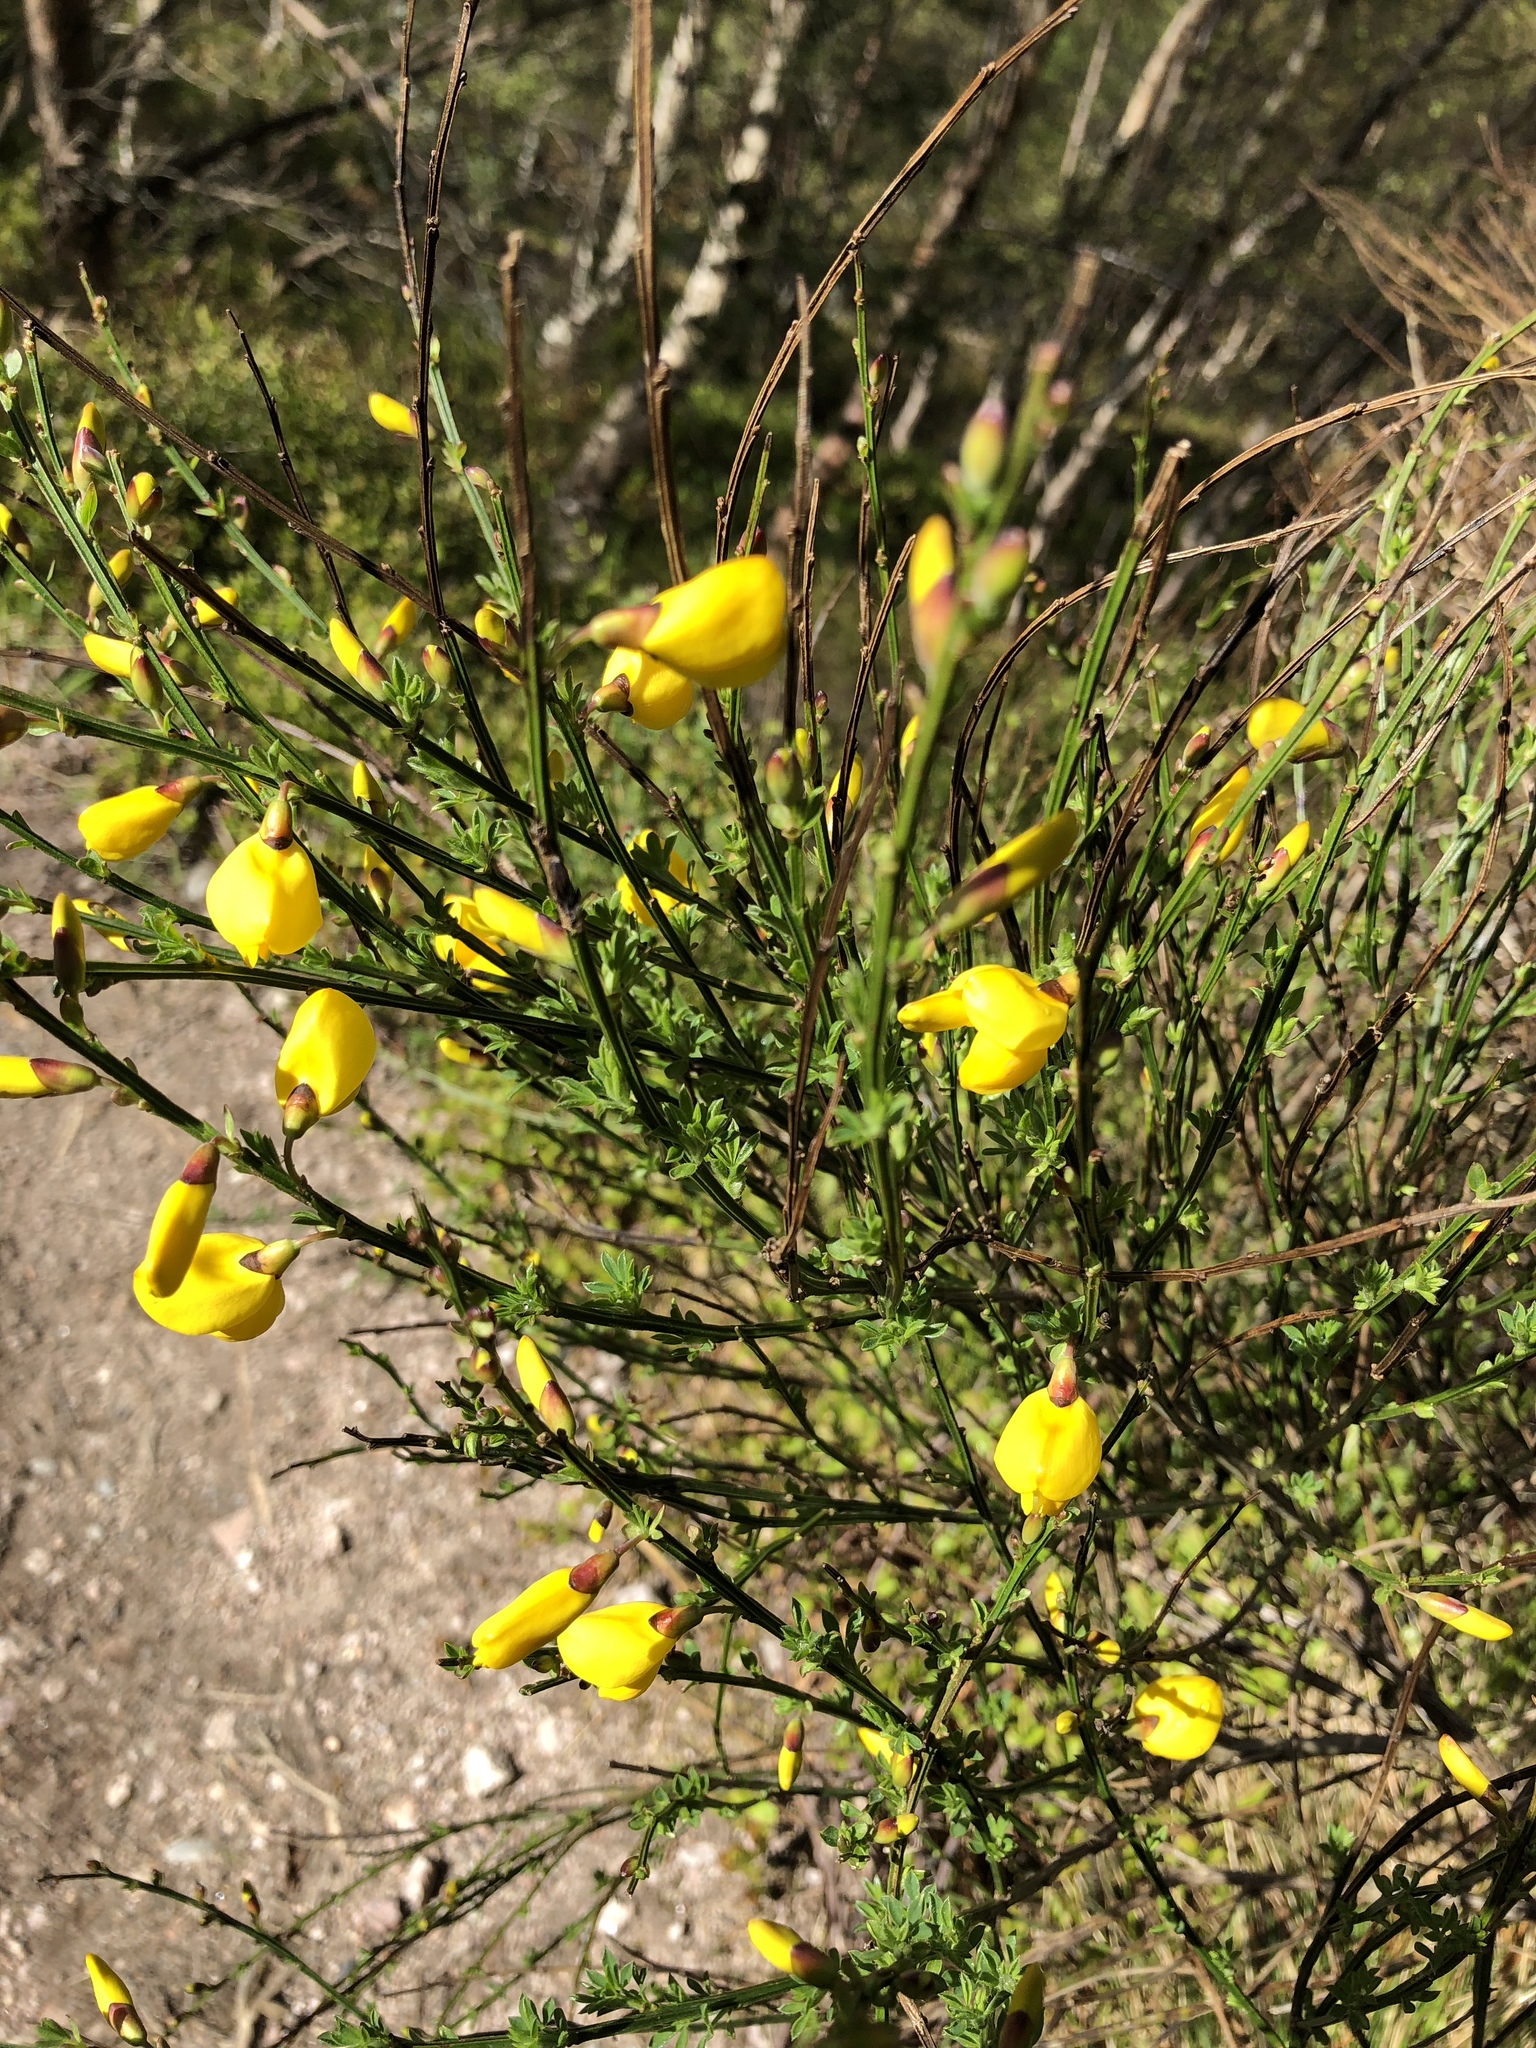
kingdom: Plantae
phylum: Tracheophyta
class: Magnoliopsida
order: Fabales
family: Fabaceae
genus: Cytisus
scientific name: Cytisus scoparius
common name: Scotch broom
